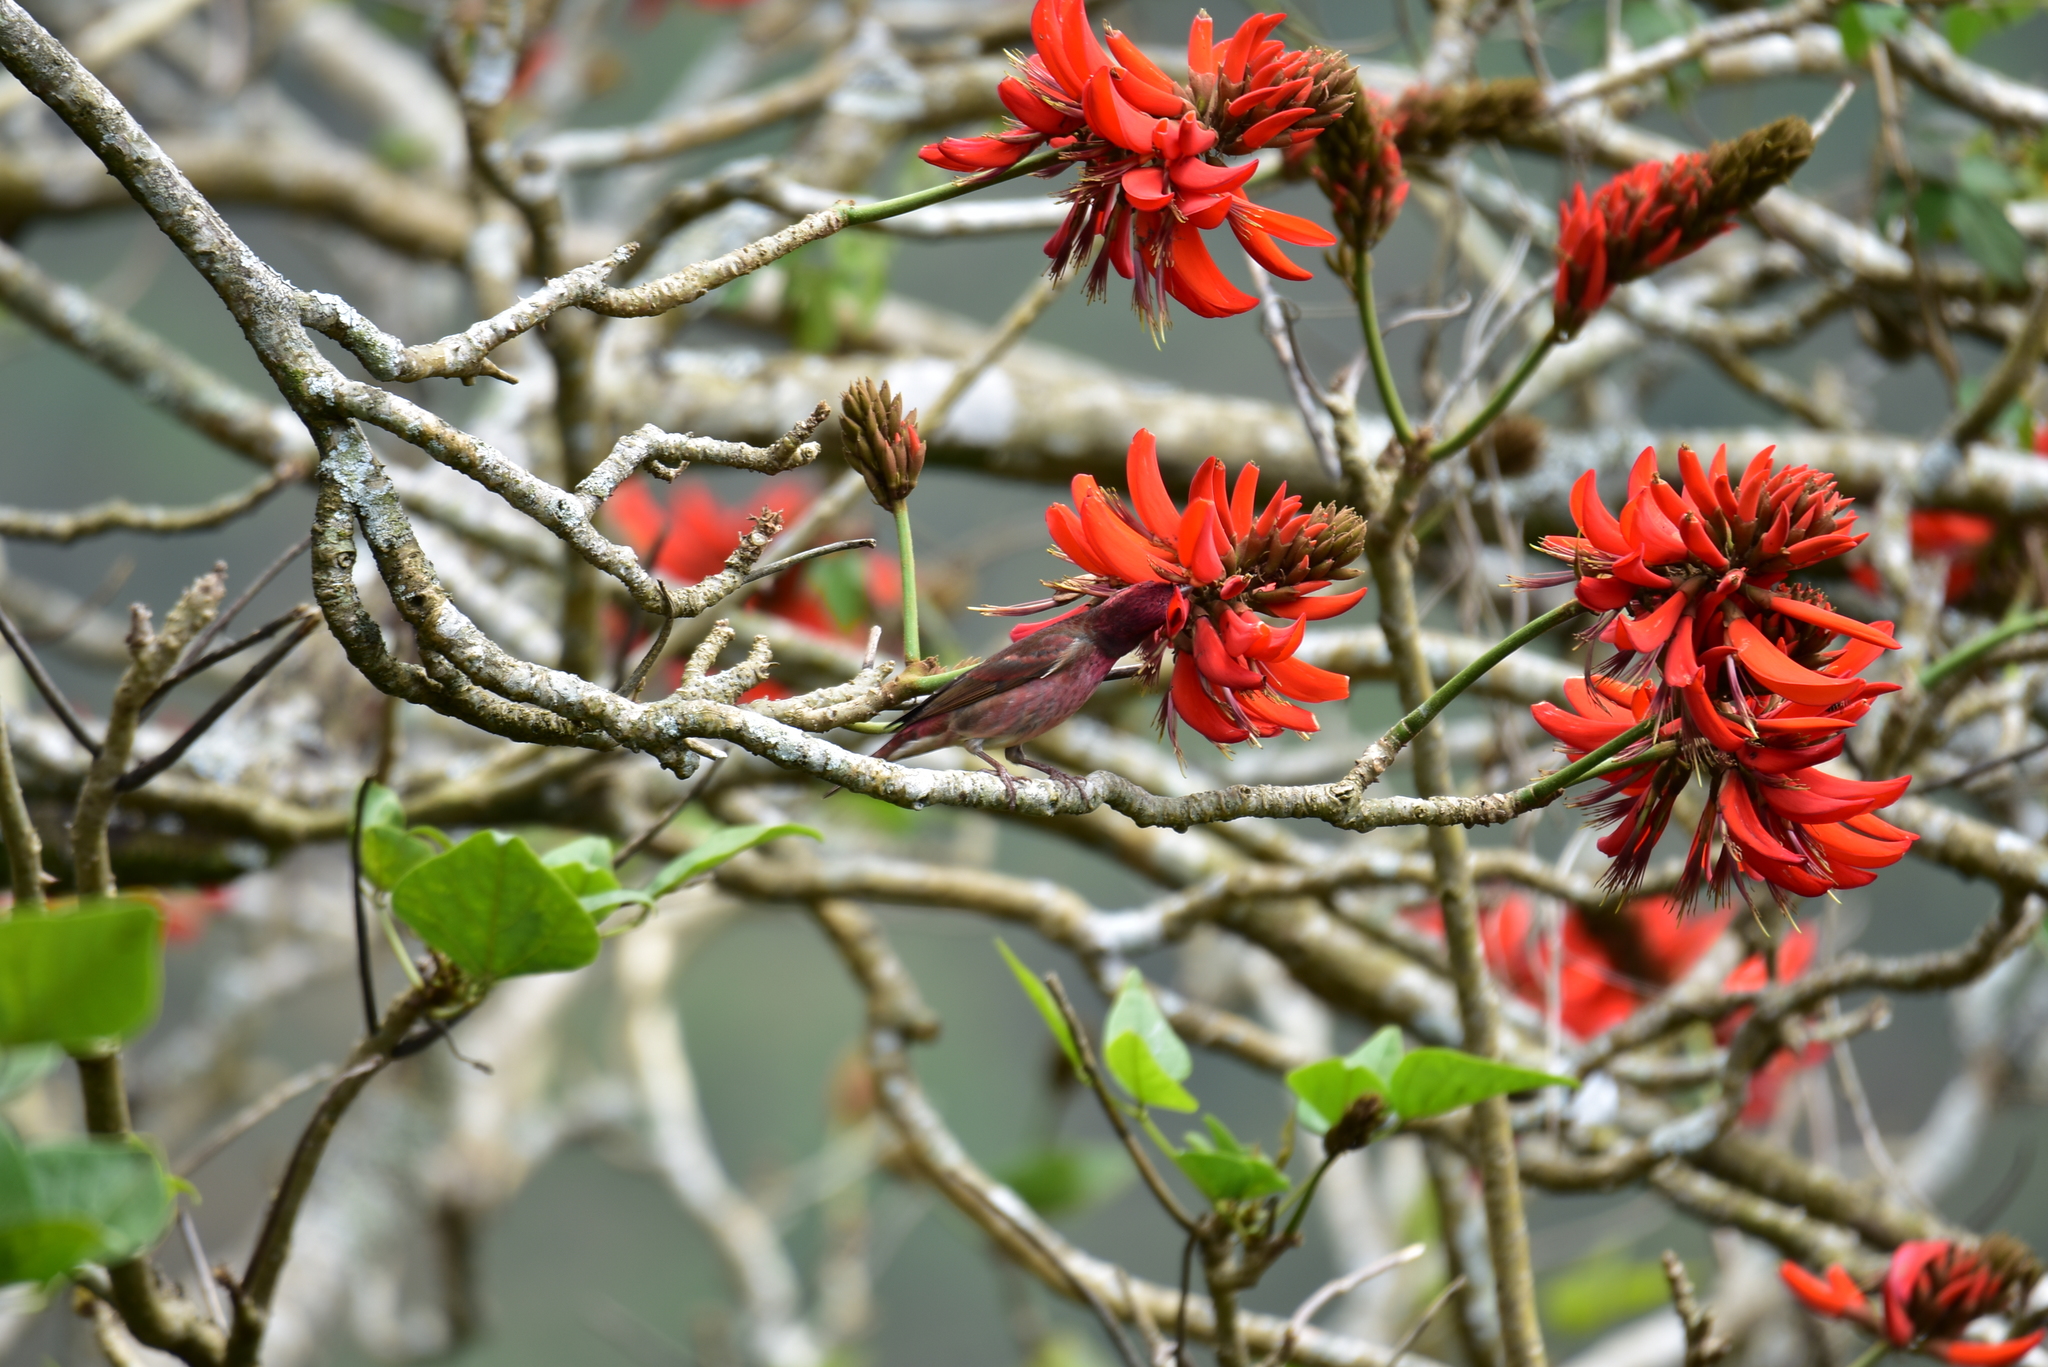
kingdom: Animalia
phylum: Chordata
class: Aves
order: Passeriformes
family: Fringillidae
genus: Carpodacus
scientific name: Carpodacus erythrinus
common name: Common rosefinch
